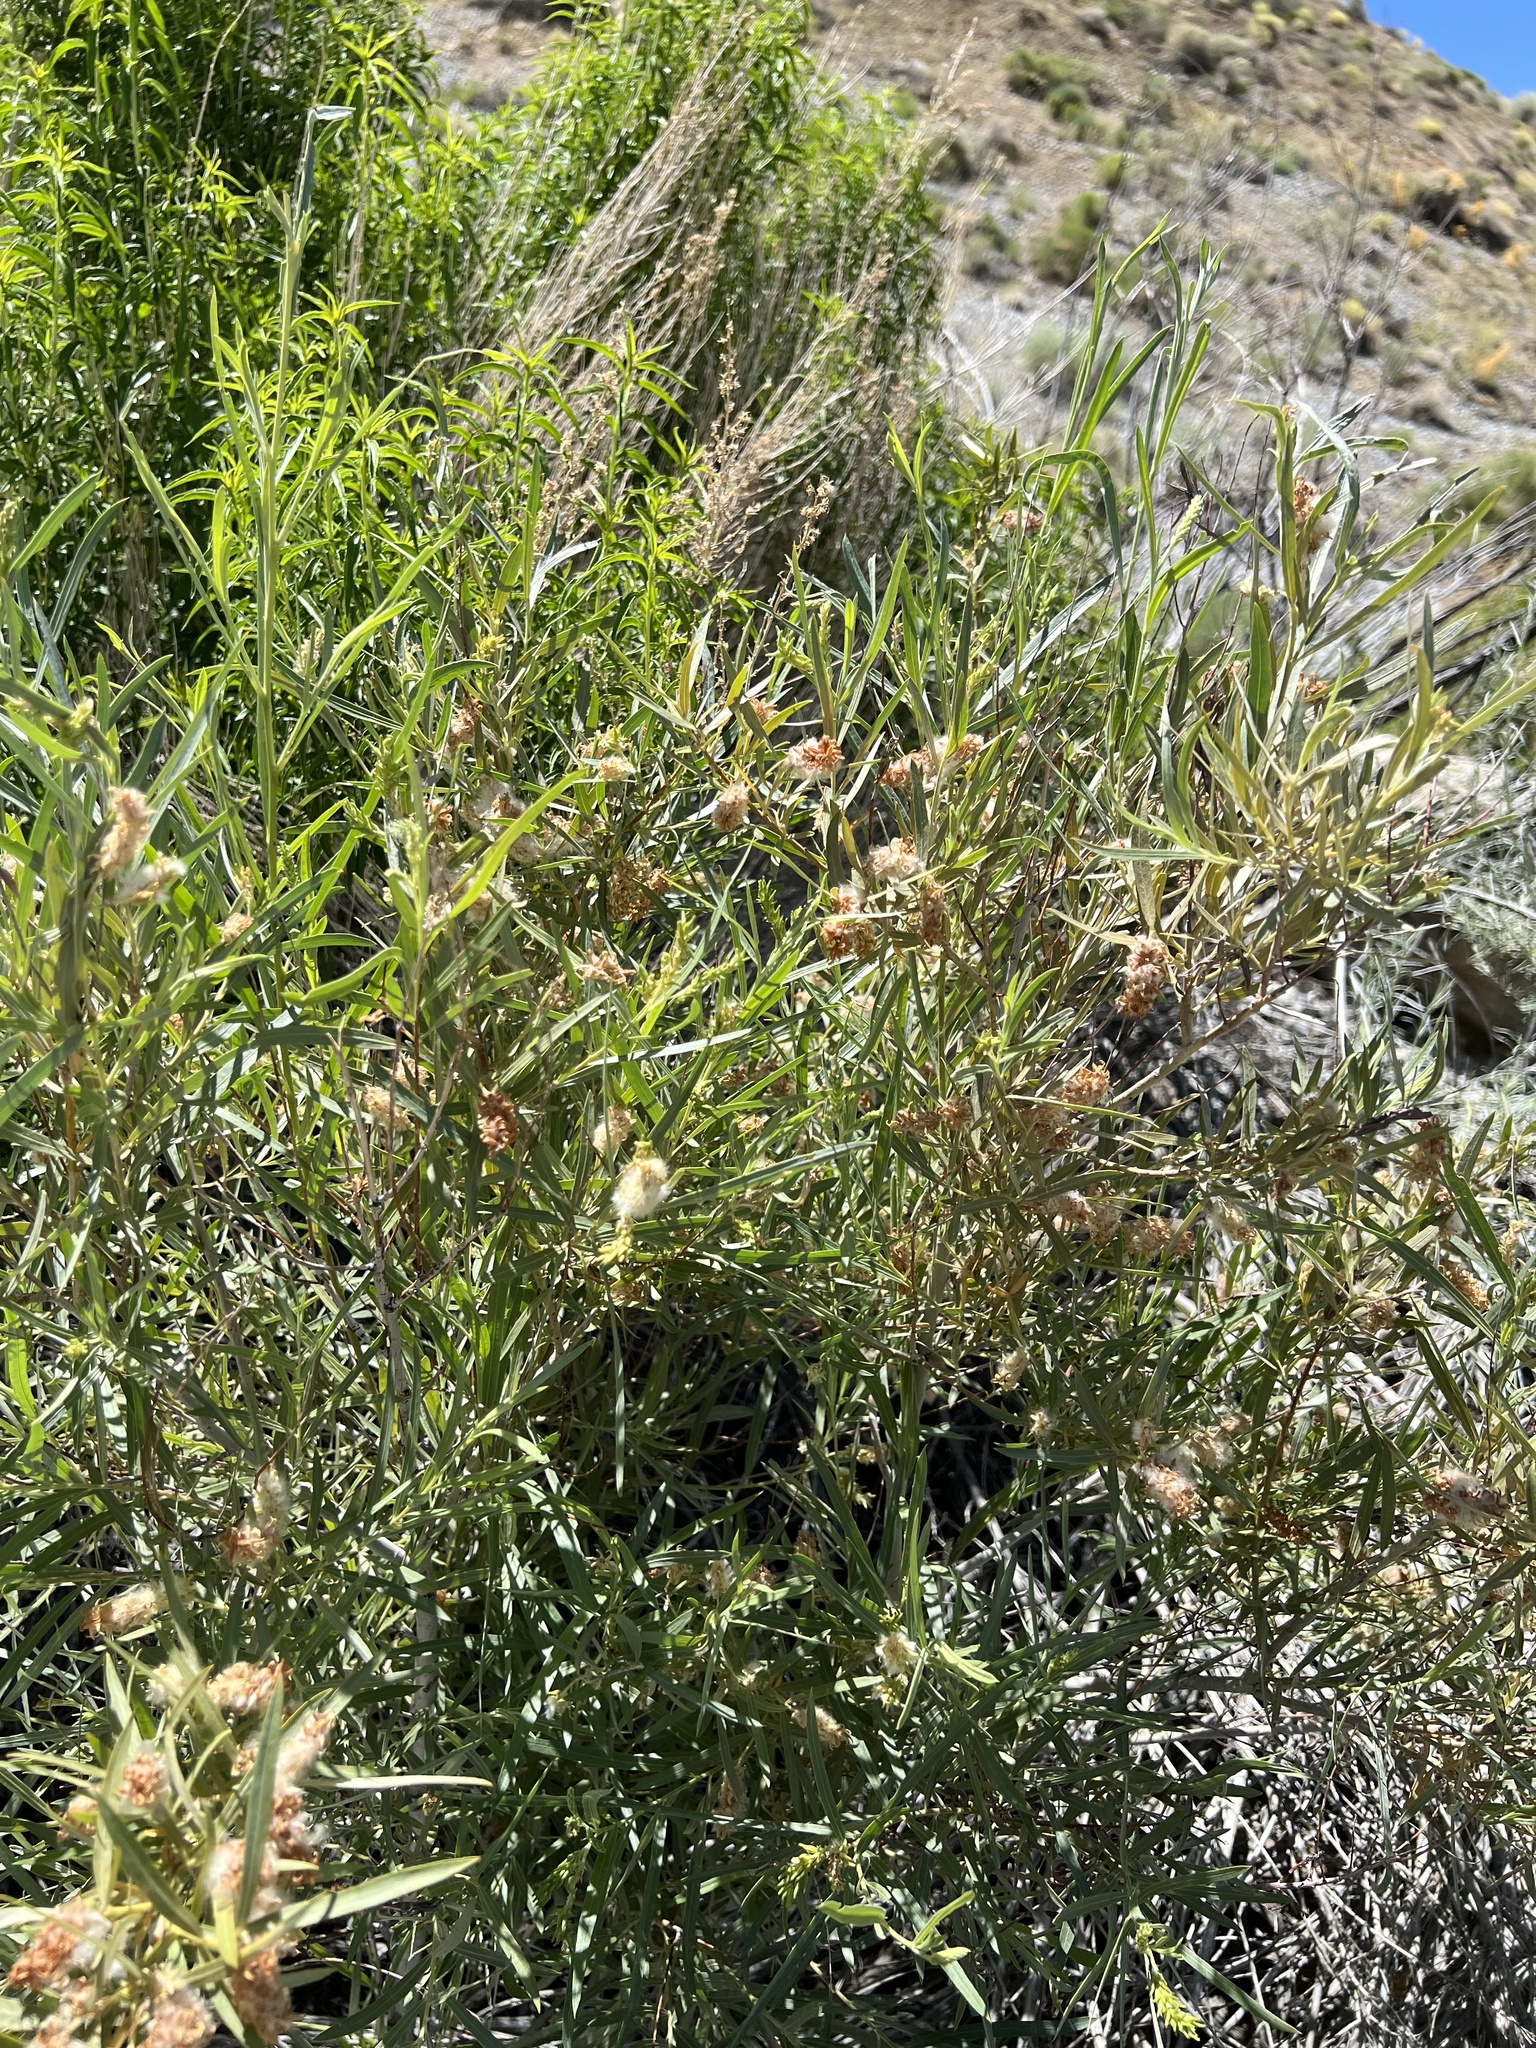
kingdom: Plantae
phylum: Tracheophyta
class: Magnoliopsida
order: Malpighiales
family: Salicaceae
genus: Salix
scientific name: Salix exigua
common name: Coyote willow
